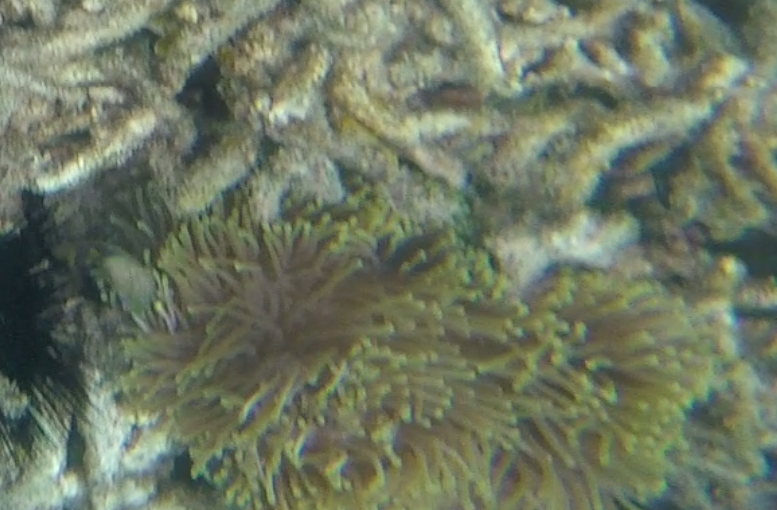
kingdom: Animalia
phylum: Cnidaria
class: Anthozoa
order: Actiniaria
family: Stichodactylidae
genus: Radianthus
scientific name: Radianthus magnifica
